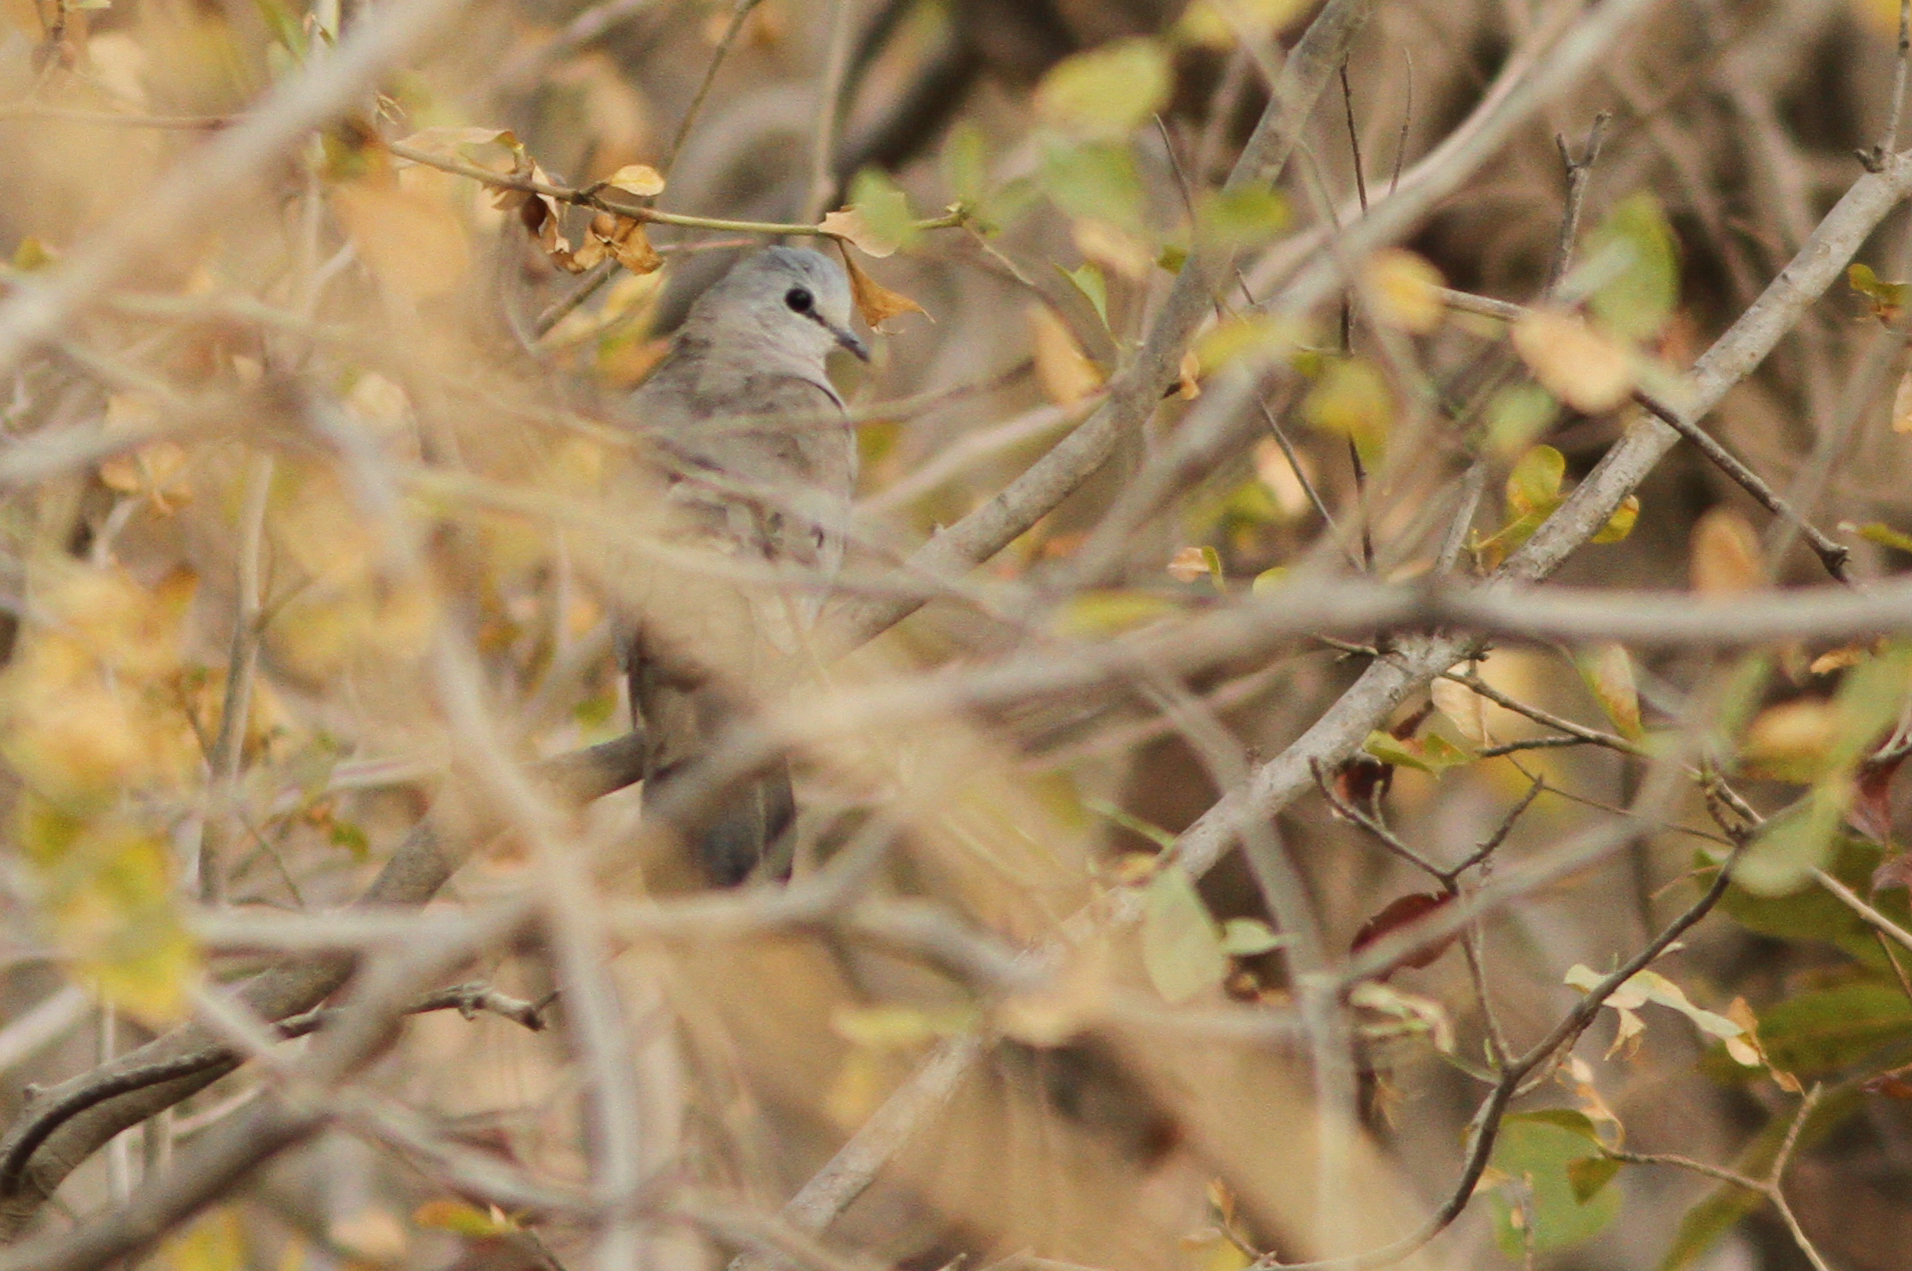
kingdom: Animalia
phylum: Chordata
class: Aves
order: Columbiformes
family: Columbidae
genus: Turtur
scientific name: Turtur abyssinicus
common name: Black-billed wood dove
